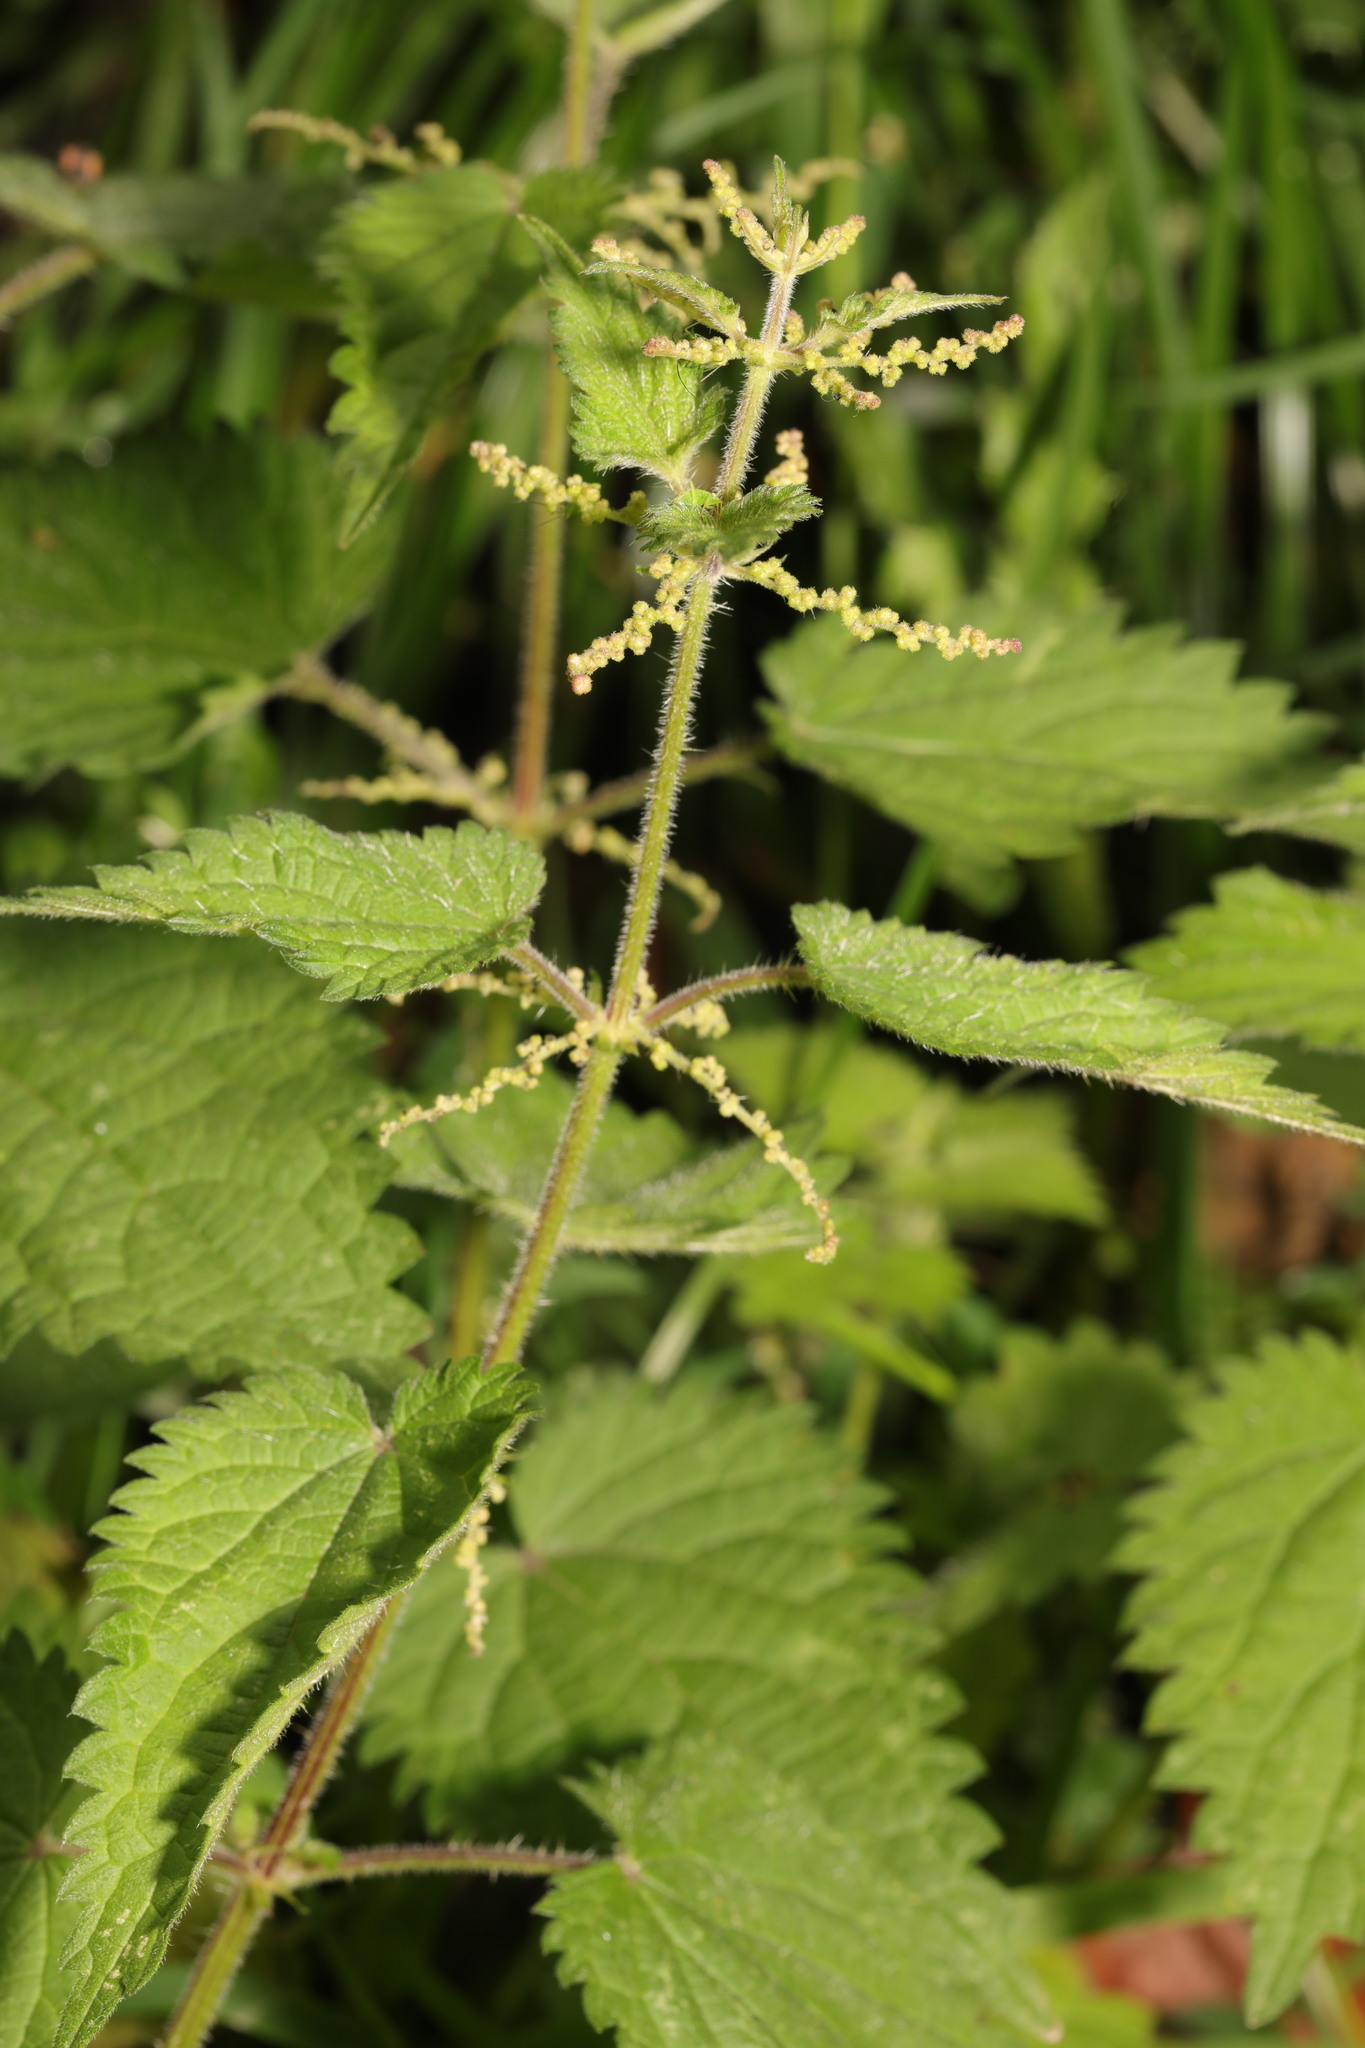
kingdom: Plantae
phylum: Tracheophyta
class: Magnoliopsida
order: Rosales
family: Urticaceae
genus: Urtica
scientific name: Urtica dioica
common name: Common nettle
